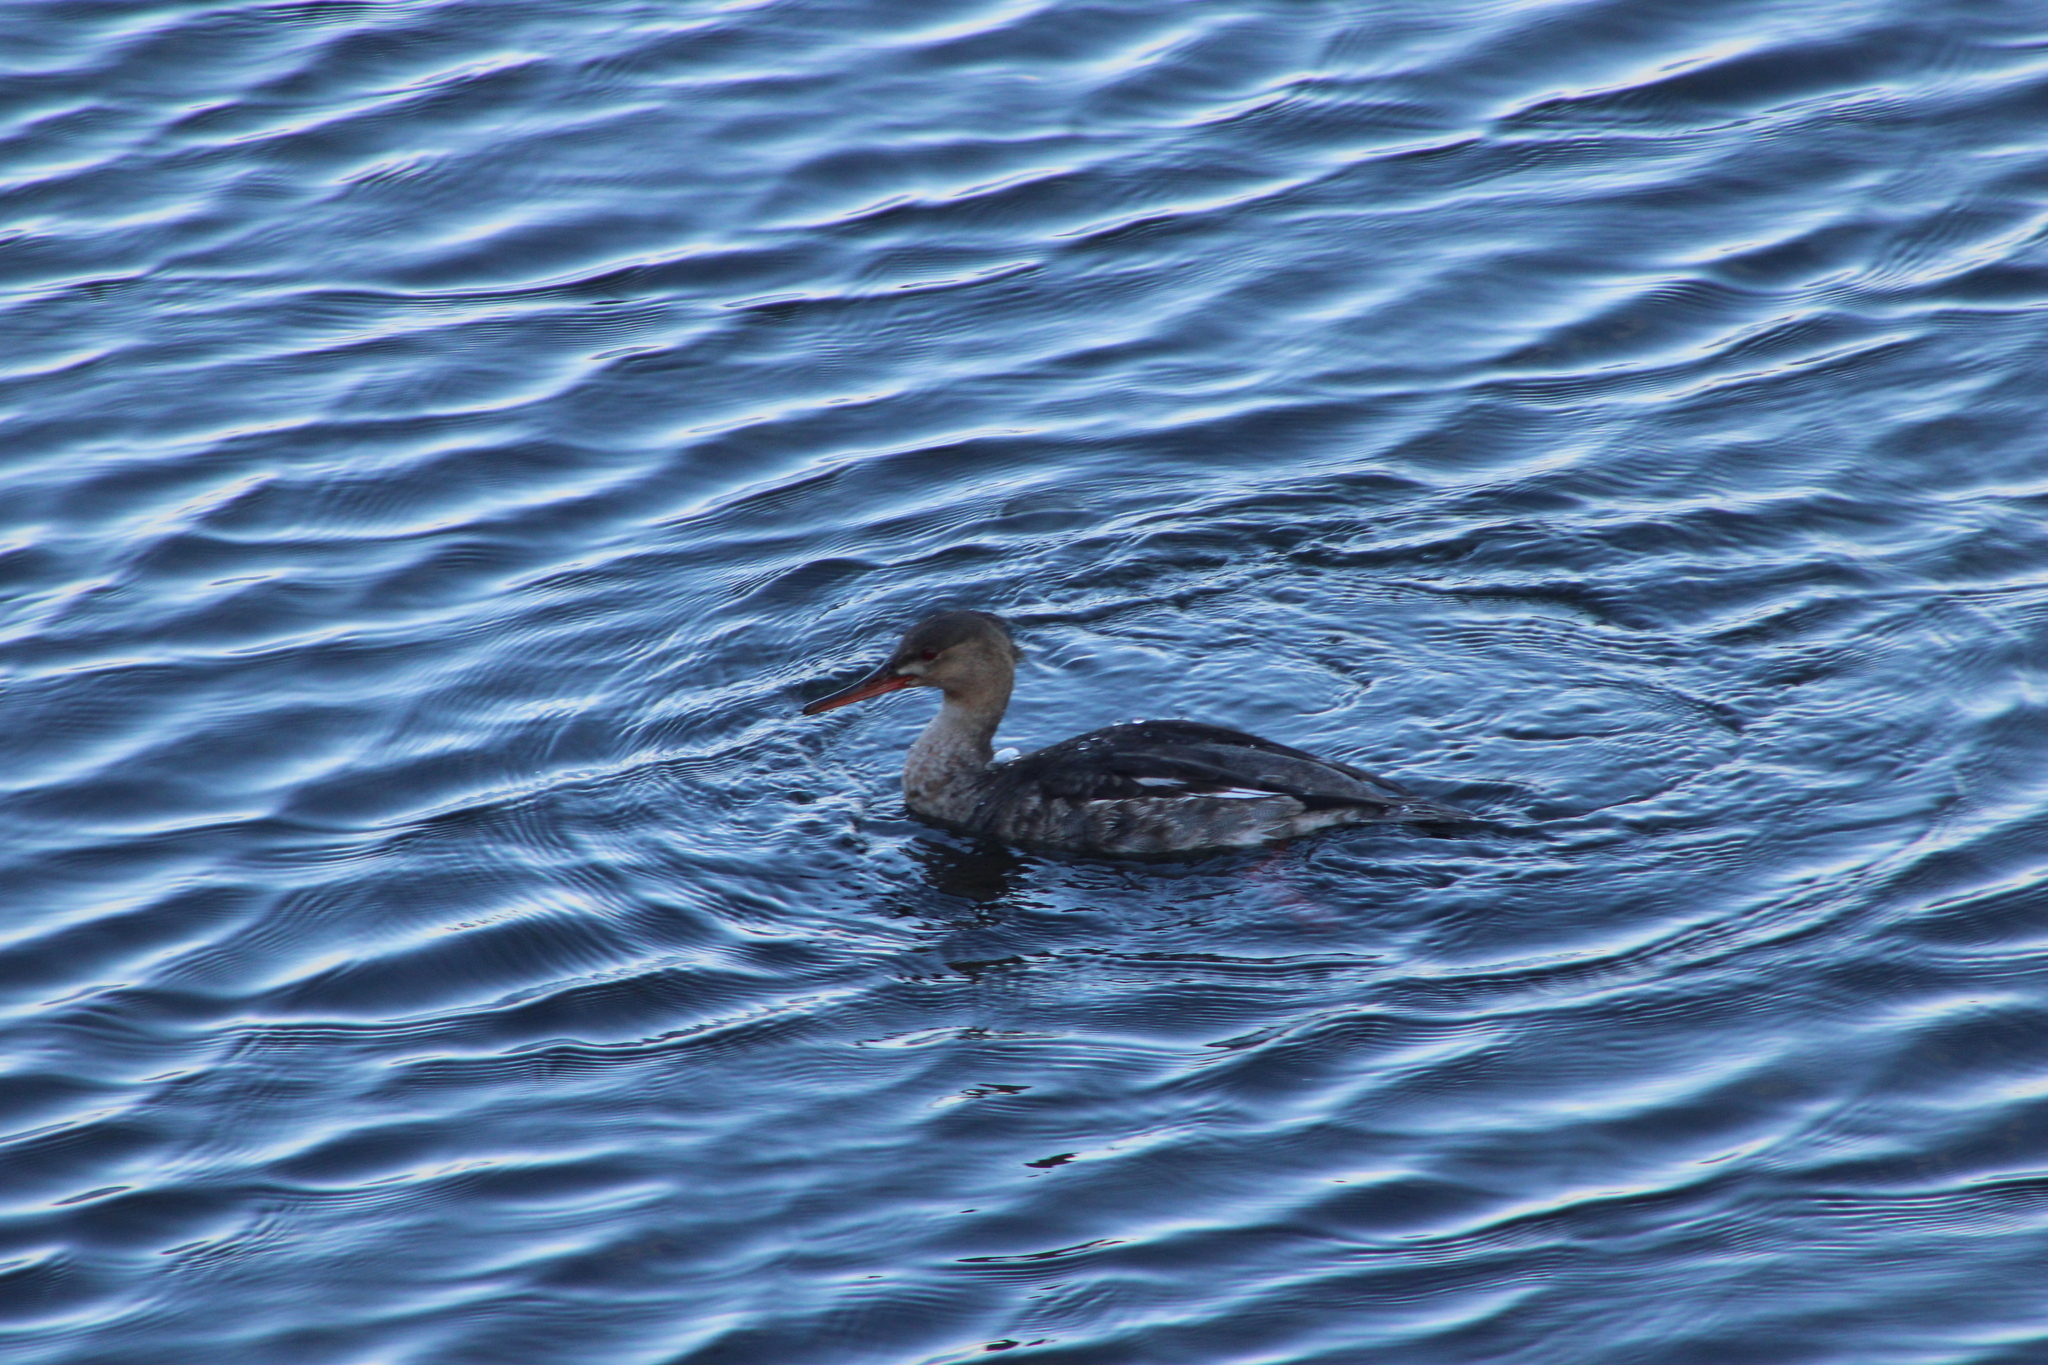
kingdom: Animalia
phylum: Chordata
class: Aves
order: Anseriformes
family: Anatidae
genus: Mergus
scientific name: Mergus serrator
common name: Red-breasted merganser
